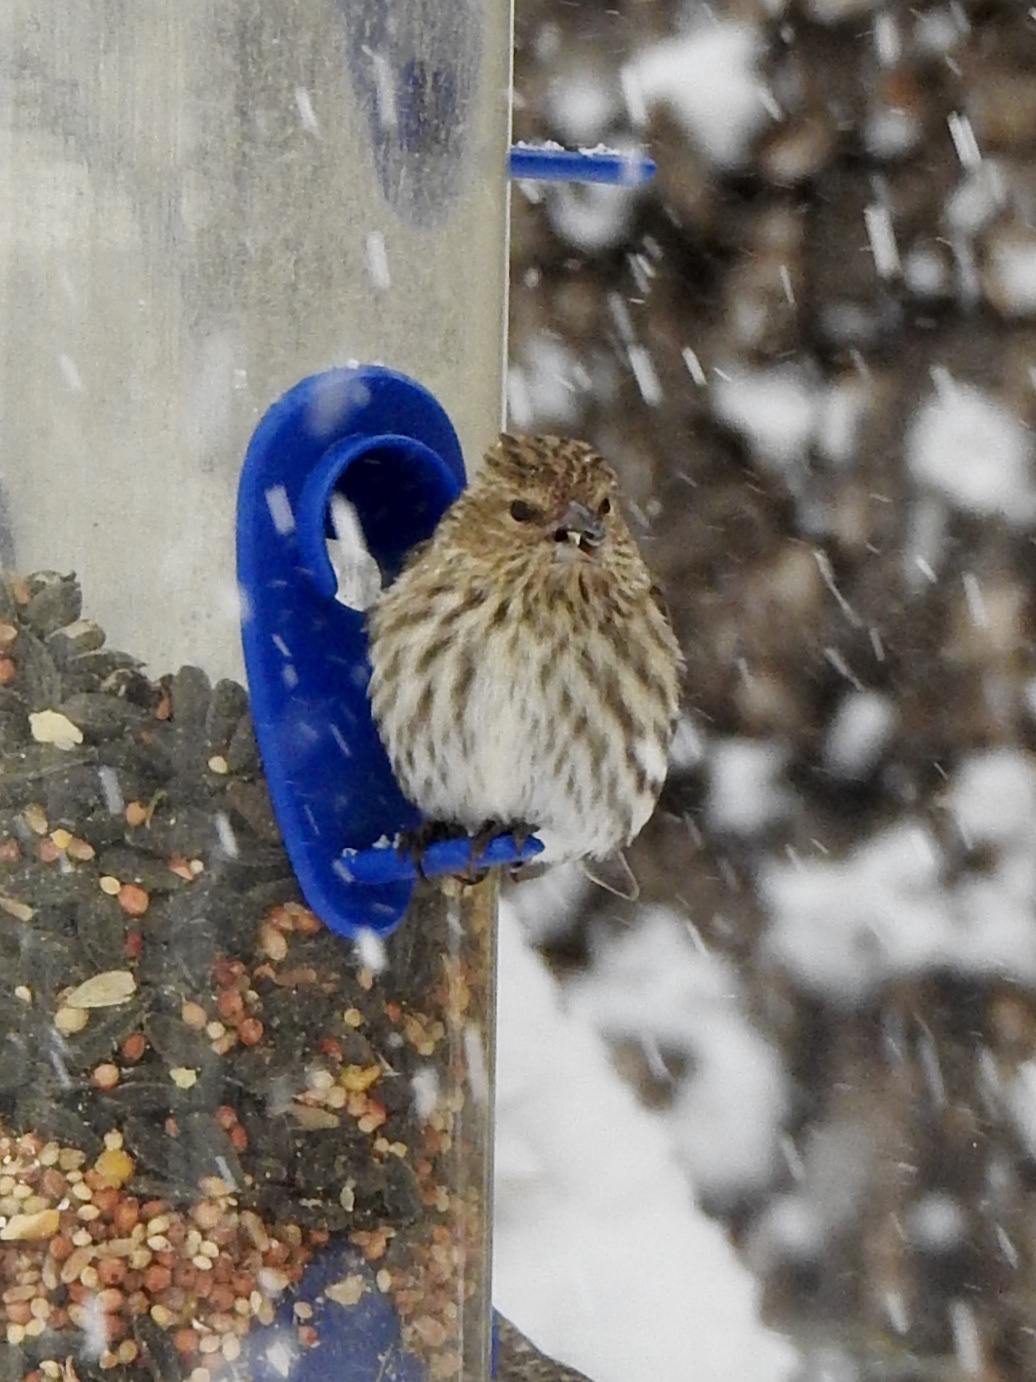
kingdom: Animalia
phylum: Chordata
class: Aves
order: Passeriformes
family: Fringillidae
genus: Spinus
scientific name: Spinus pinus
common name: Pine siskin
